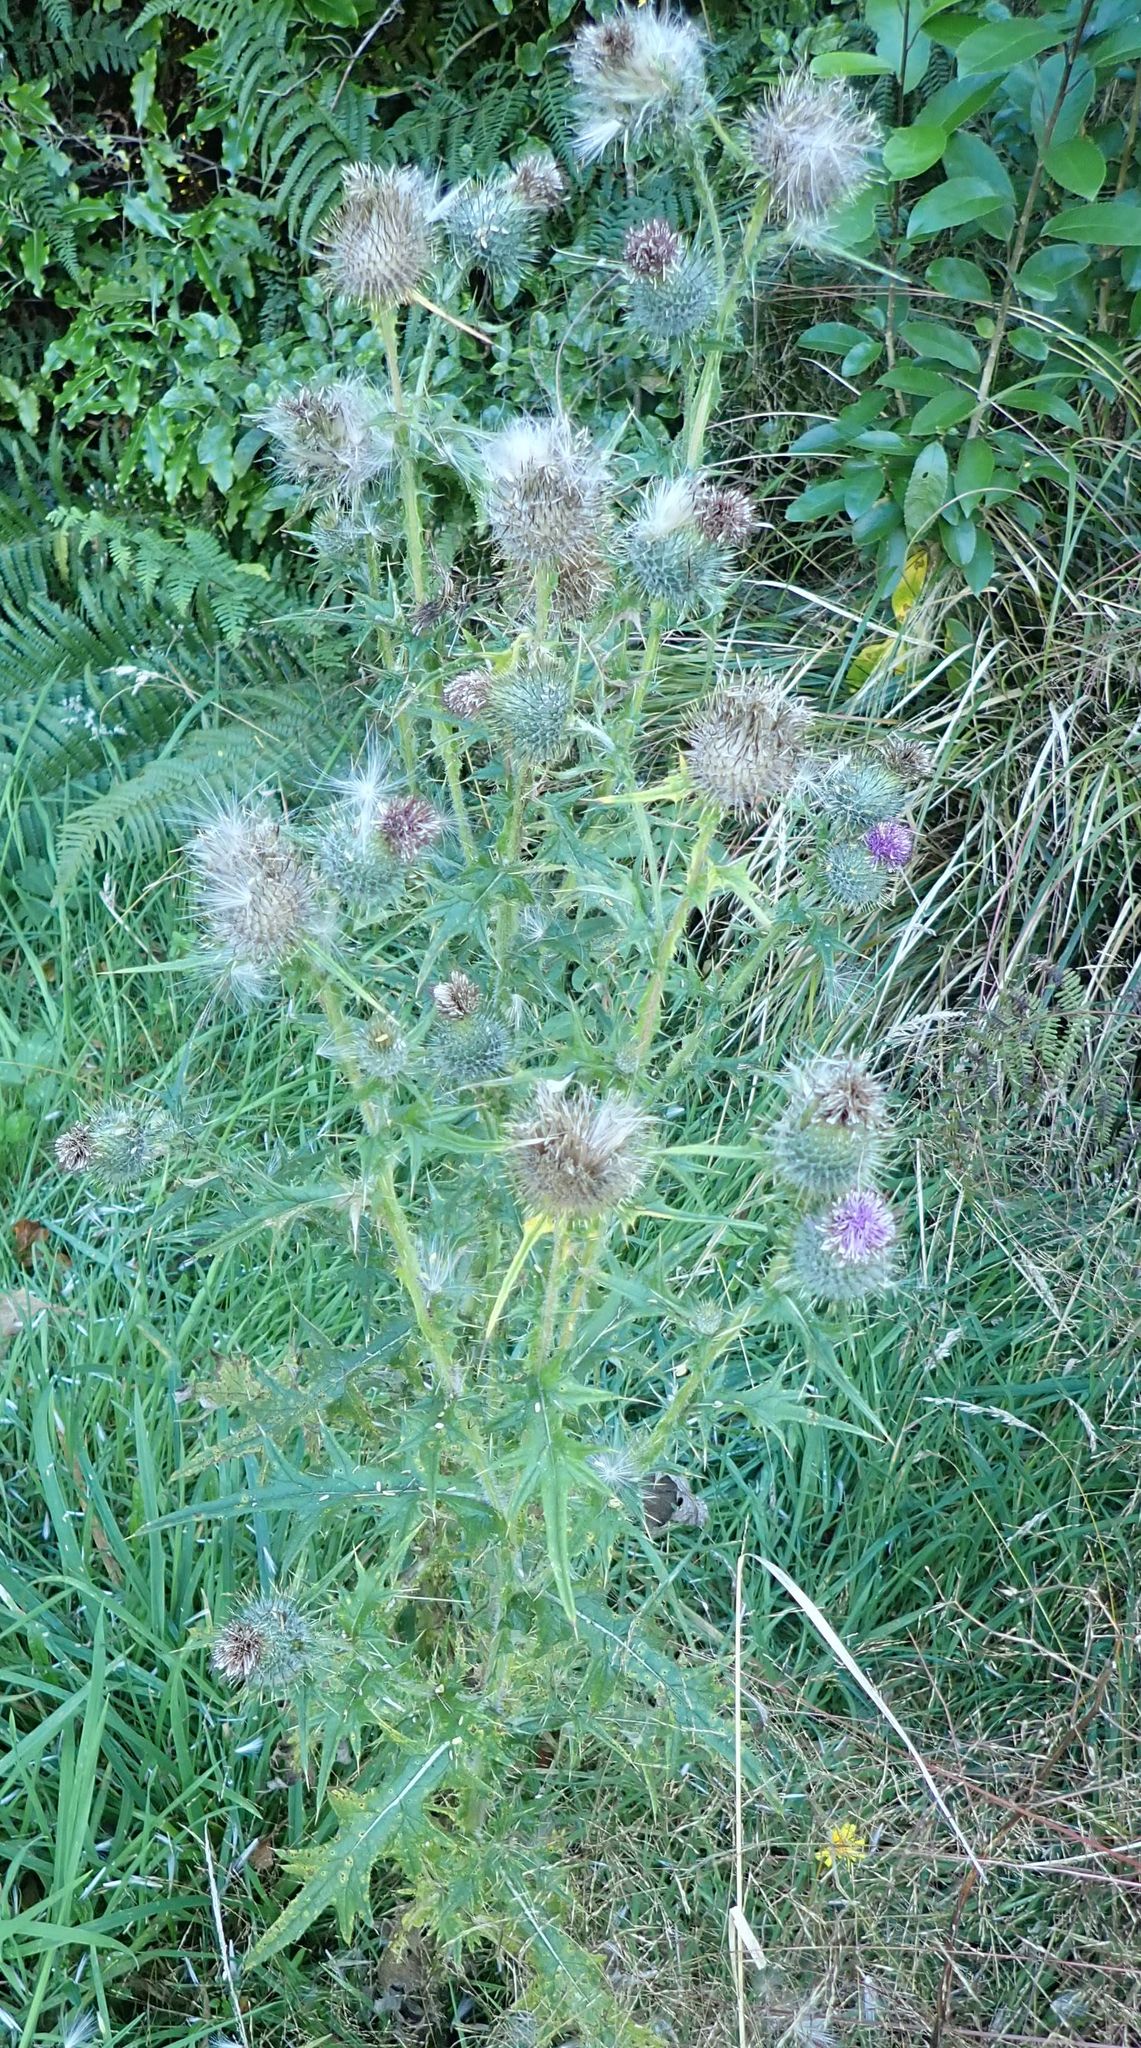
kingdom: Plantae
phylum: Tracheophyta
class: Magnoliopsida
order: Asterales
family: Asteraceae
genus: Cirsium
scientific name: Cirsium vulgare
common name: Bull thistle
